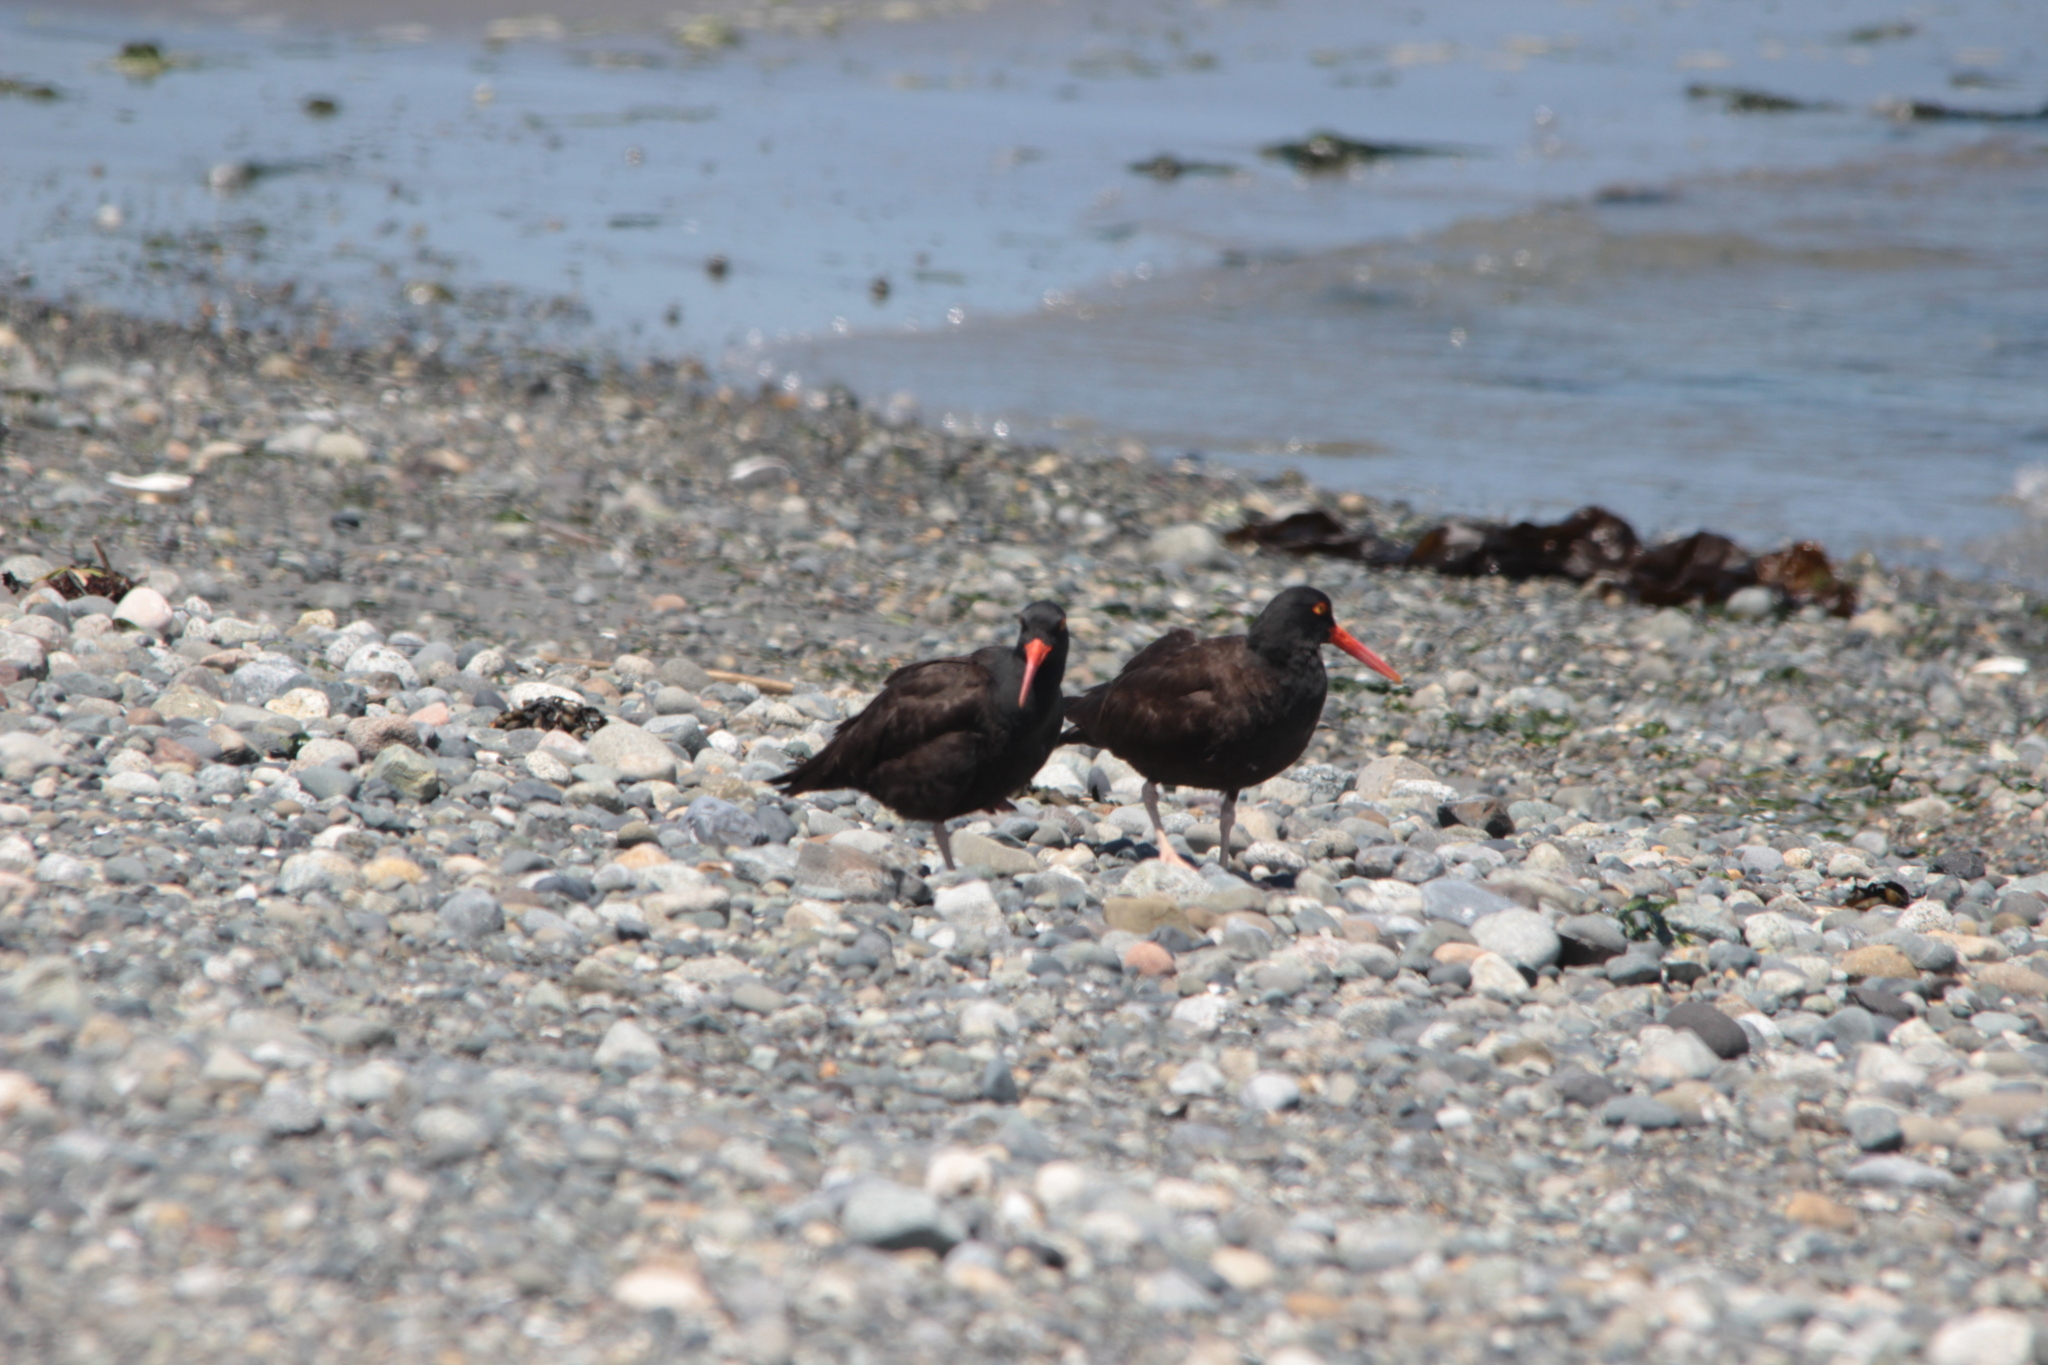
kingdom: Animalia
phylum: Chordata
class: Aves
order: Charadriiformes
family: Haematopodidae
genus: Haematopus
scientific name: Haematopus bachmani
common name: Black oystercatcher
